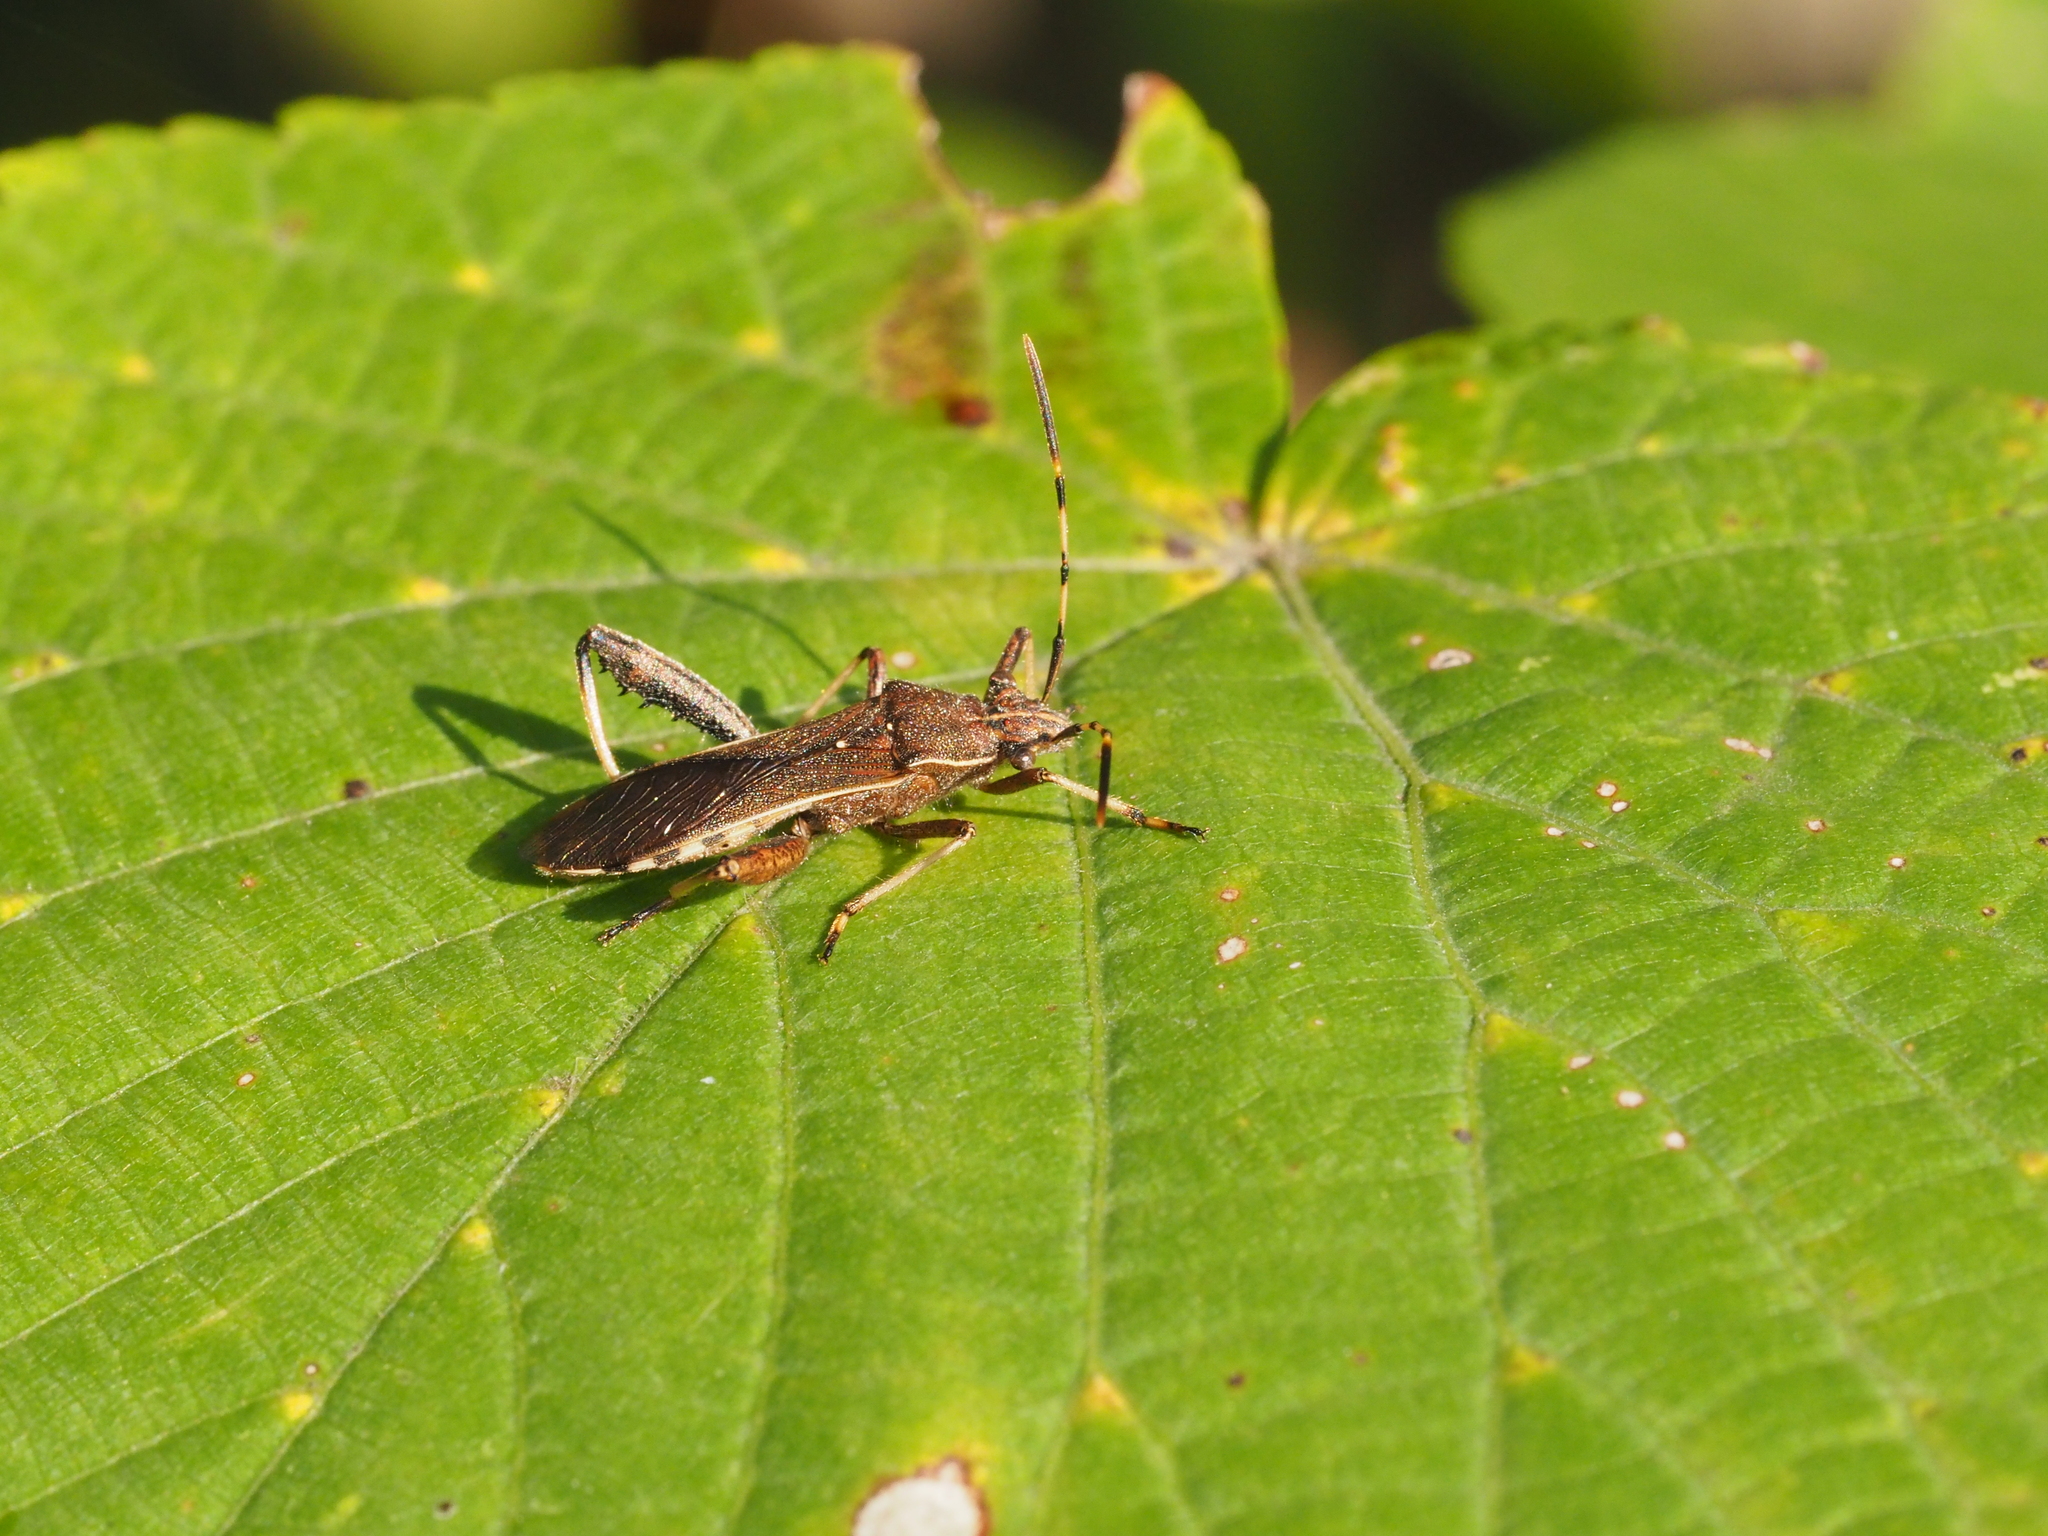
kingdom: Animalia
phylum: Arthropoda
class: Insecta
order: Hemiptera
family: Alydidae
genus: Camptopus
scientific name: Camptopus lateralis
